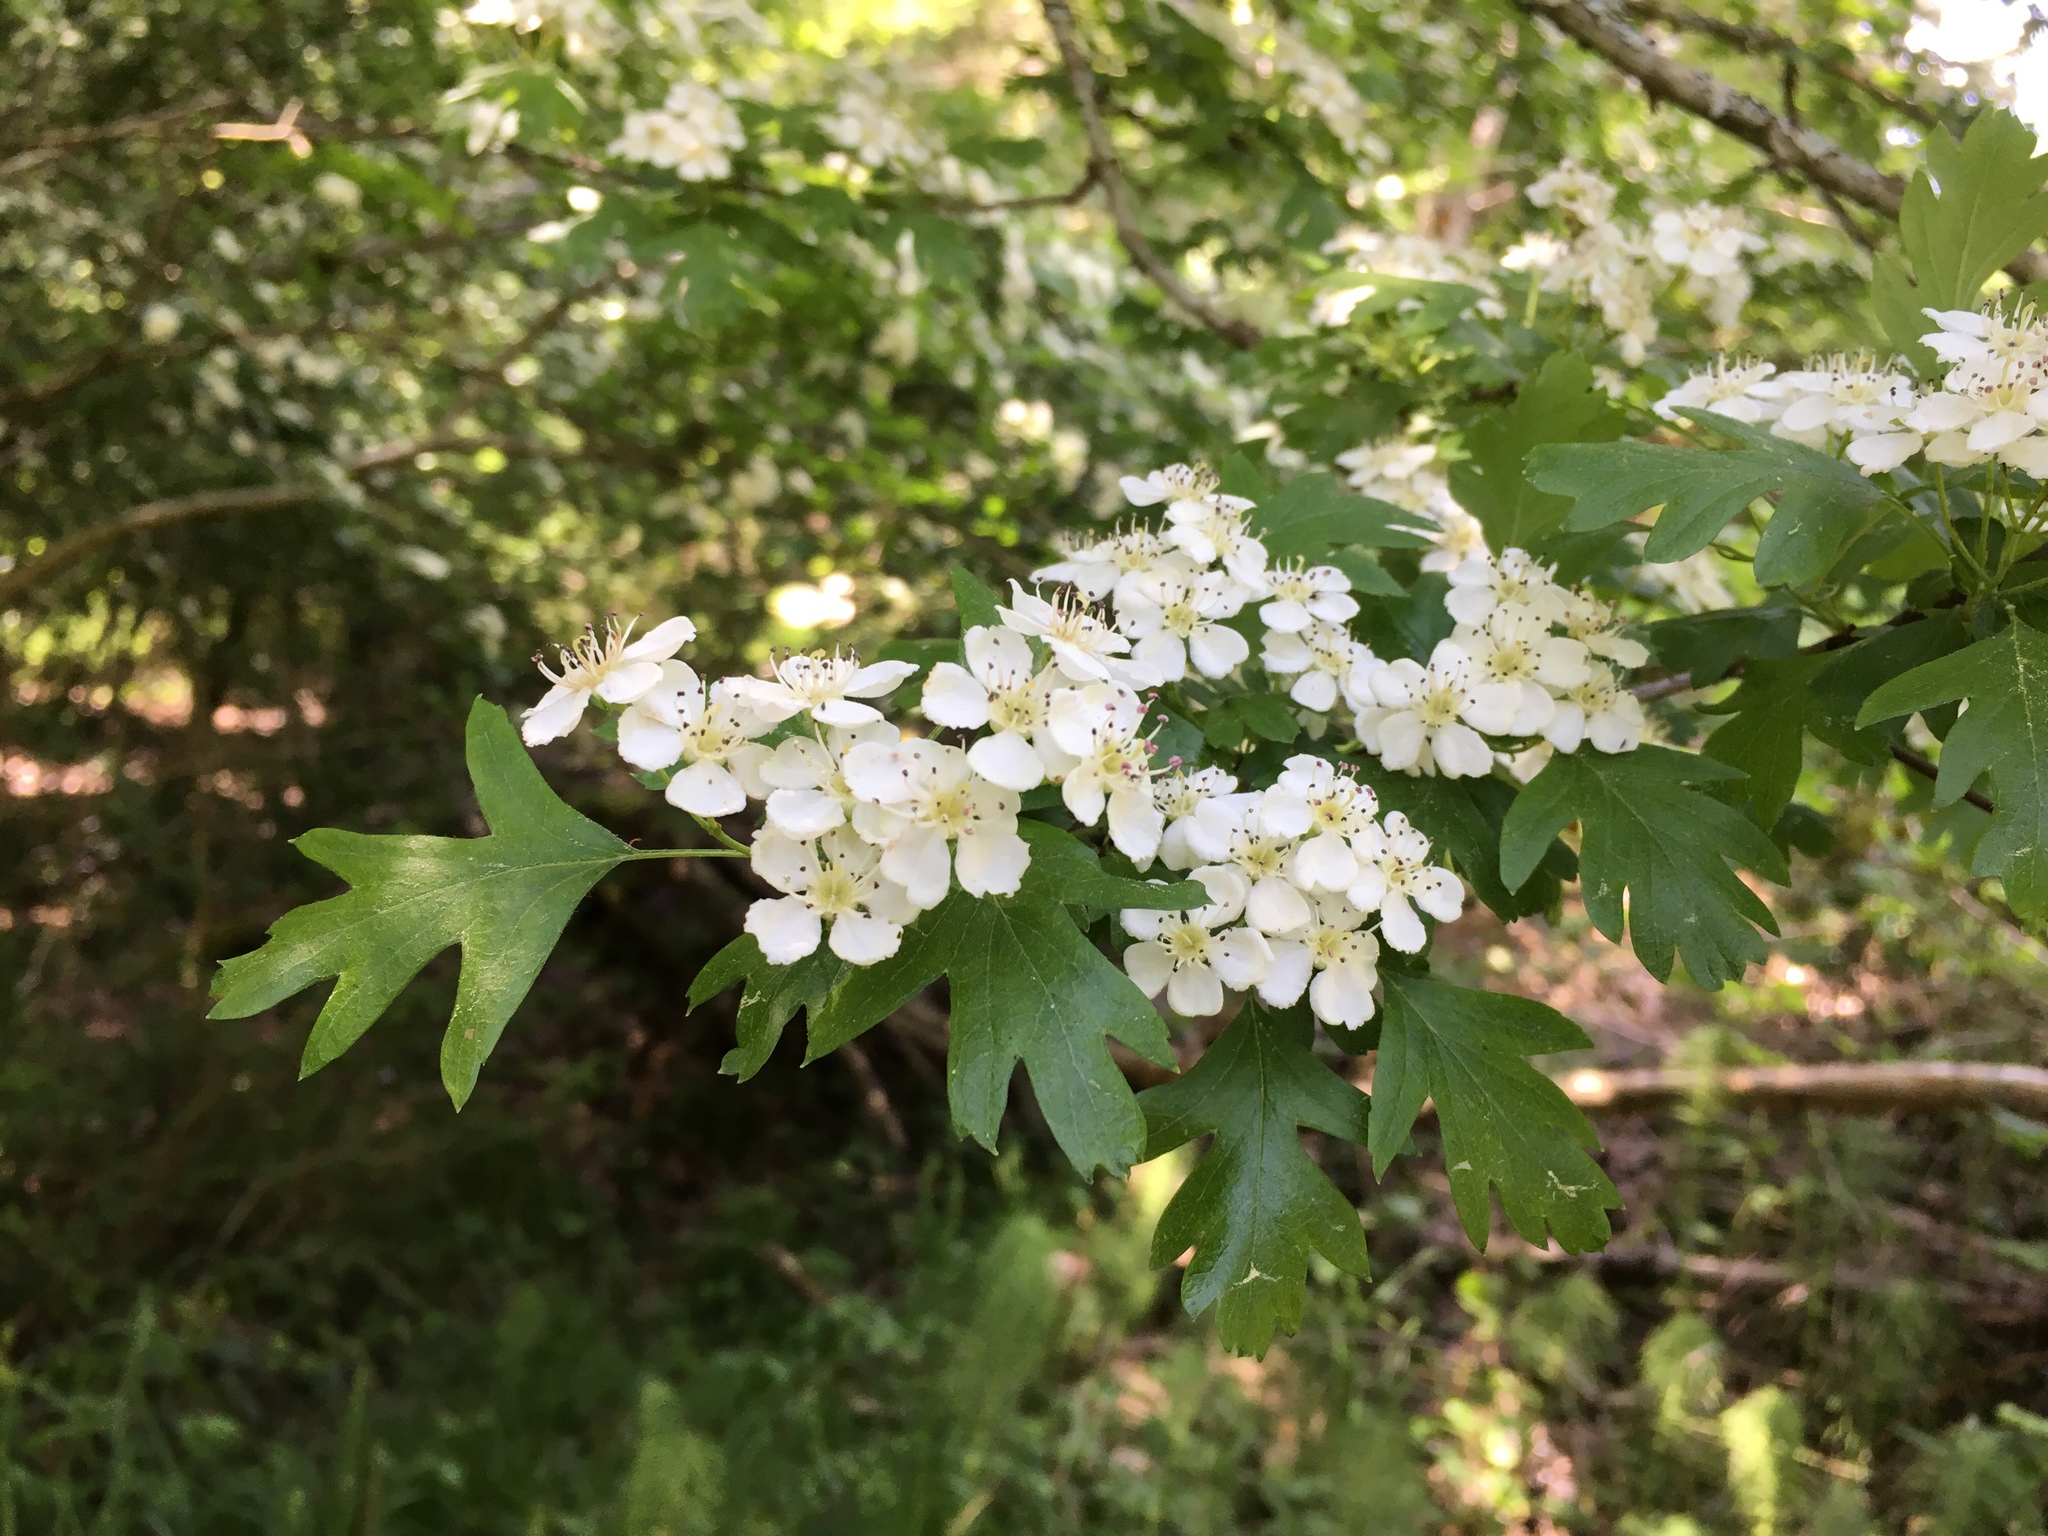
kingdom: Plantae
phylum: Tracheophyta
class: Magnoliopsida
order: Rosales
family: Rosaceae
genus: Crataegus
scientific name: Crataegus monogyna
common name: Hawthorn
